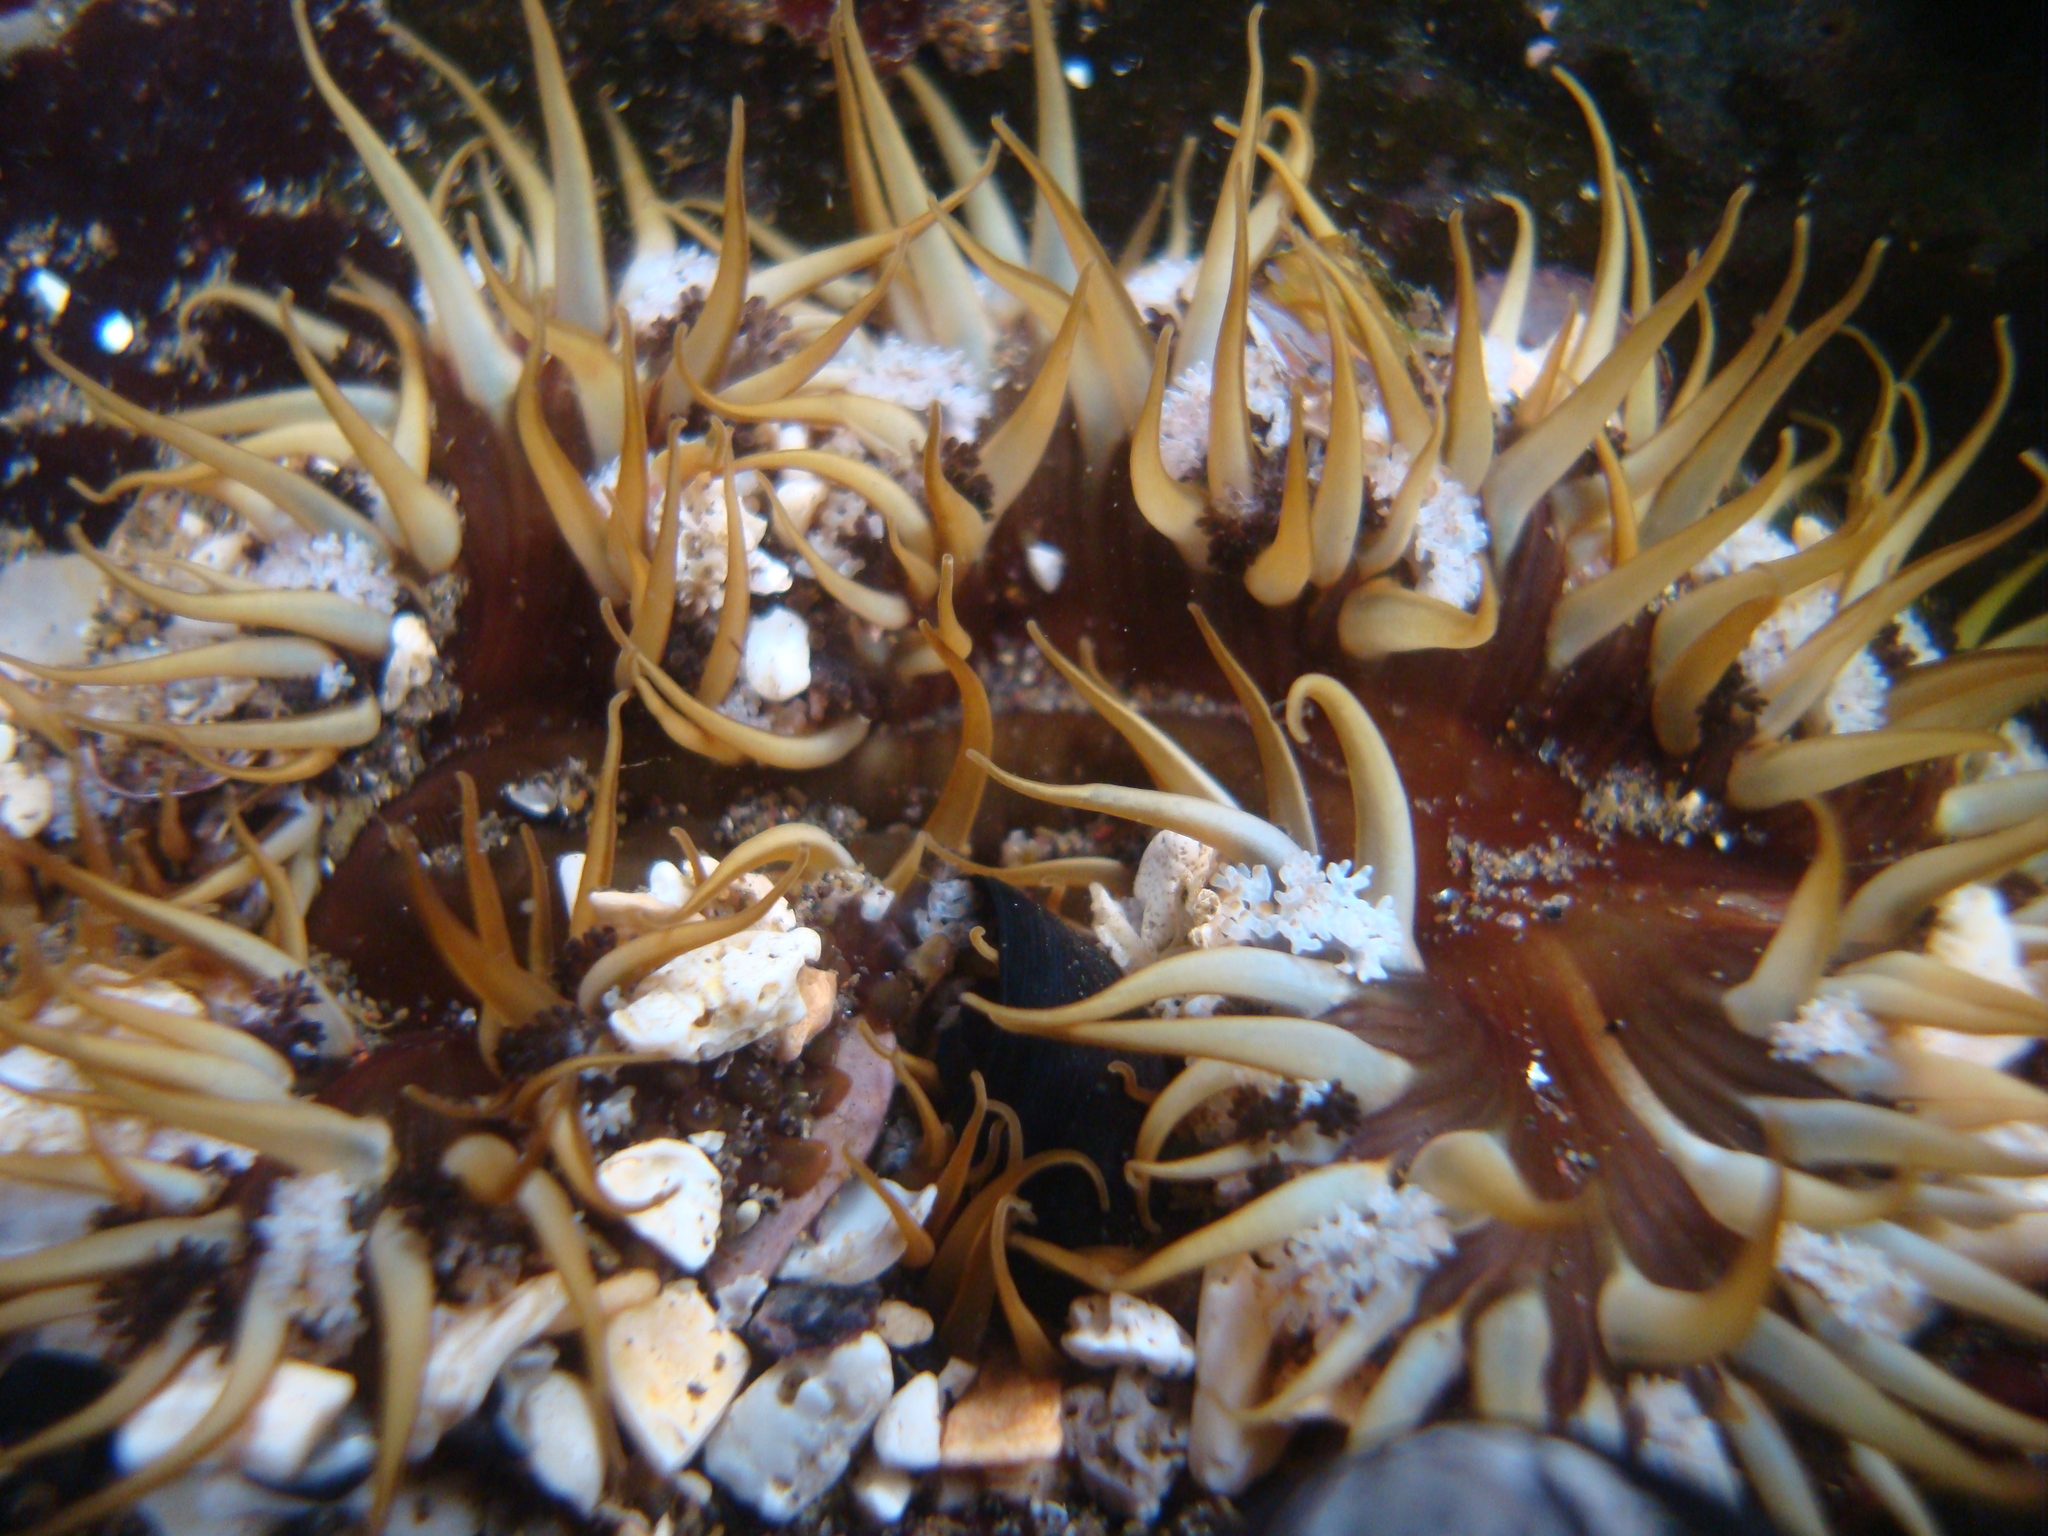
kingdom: Animalia
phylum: Cnidaria
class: Anthozoa
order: Actiniaria
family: Actiniidae
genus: Oulactis
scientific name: Oulactis concinnata
